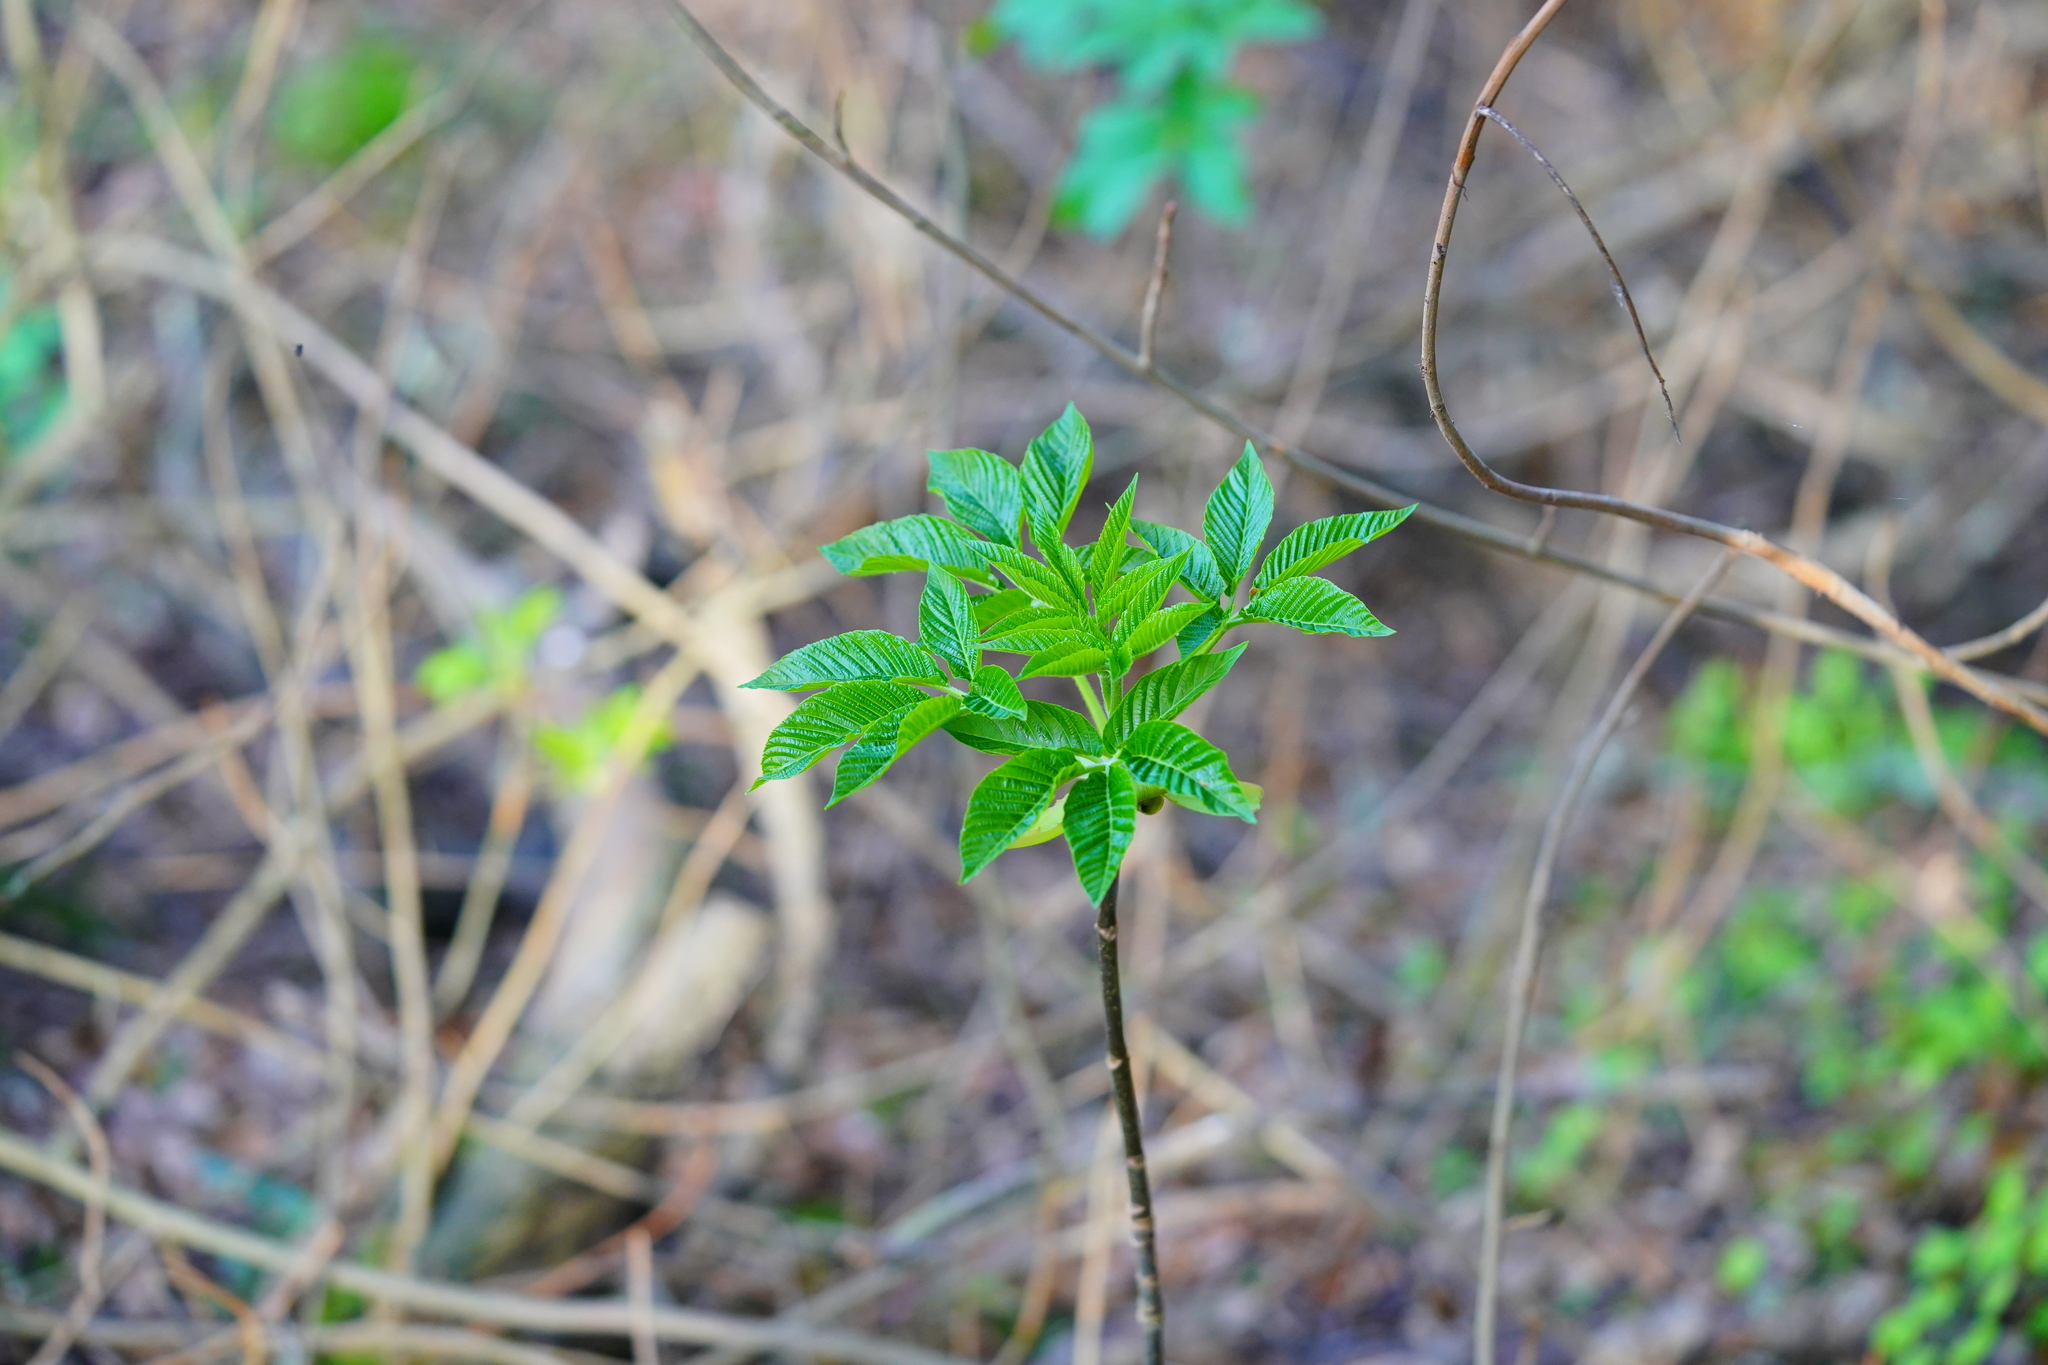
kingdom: Plantae
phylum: Tracheophyta
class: Magnoliopsida
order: Sapindales
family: Sapindaceae
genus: Aesculus
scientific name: Aesculus californica
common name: California buckeye
